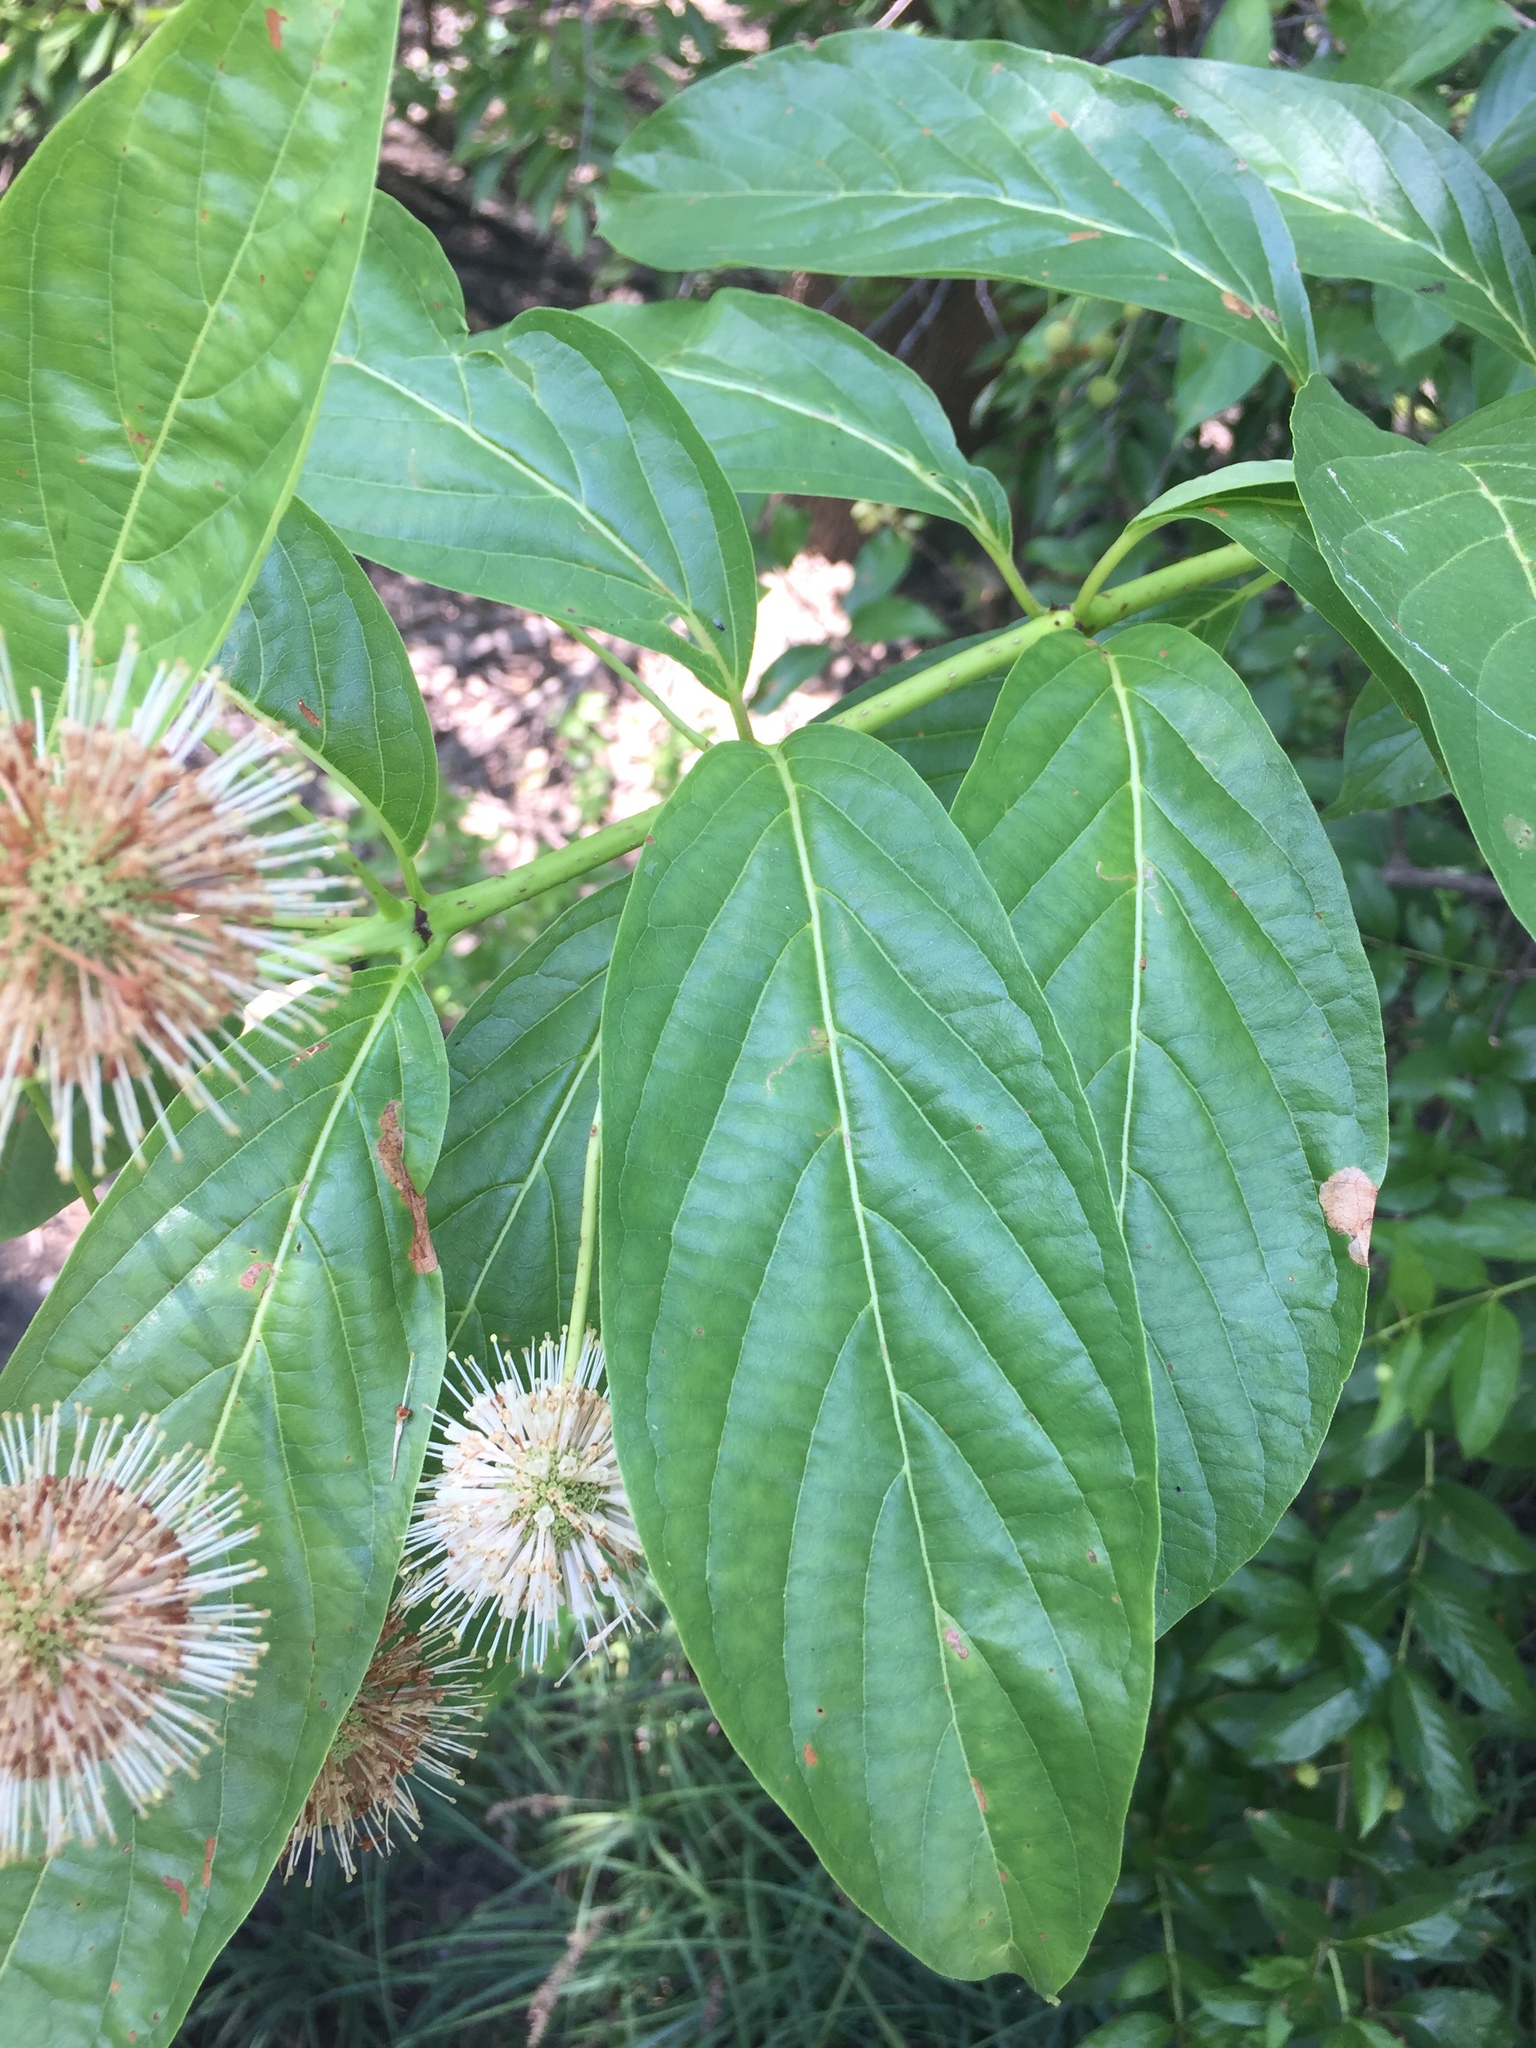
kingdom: Plantae
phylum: Tracheophyta
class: Magnoliopsida
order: Gentianales
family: Rubiaceae
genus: Cephalanthus
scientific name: Cephalanthus occidentalis
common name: Button-willow
